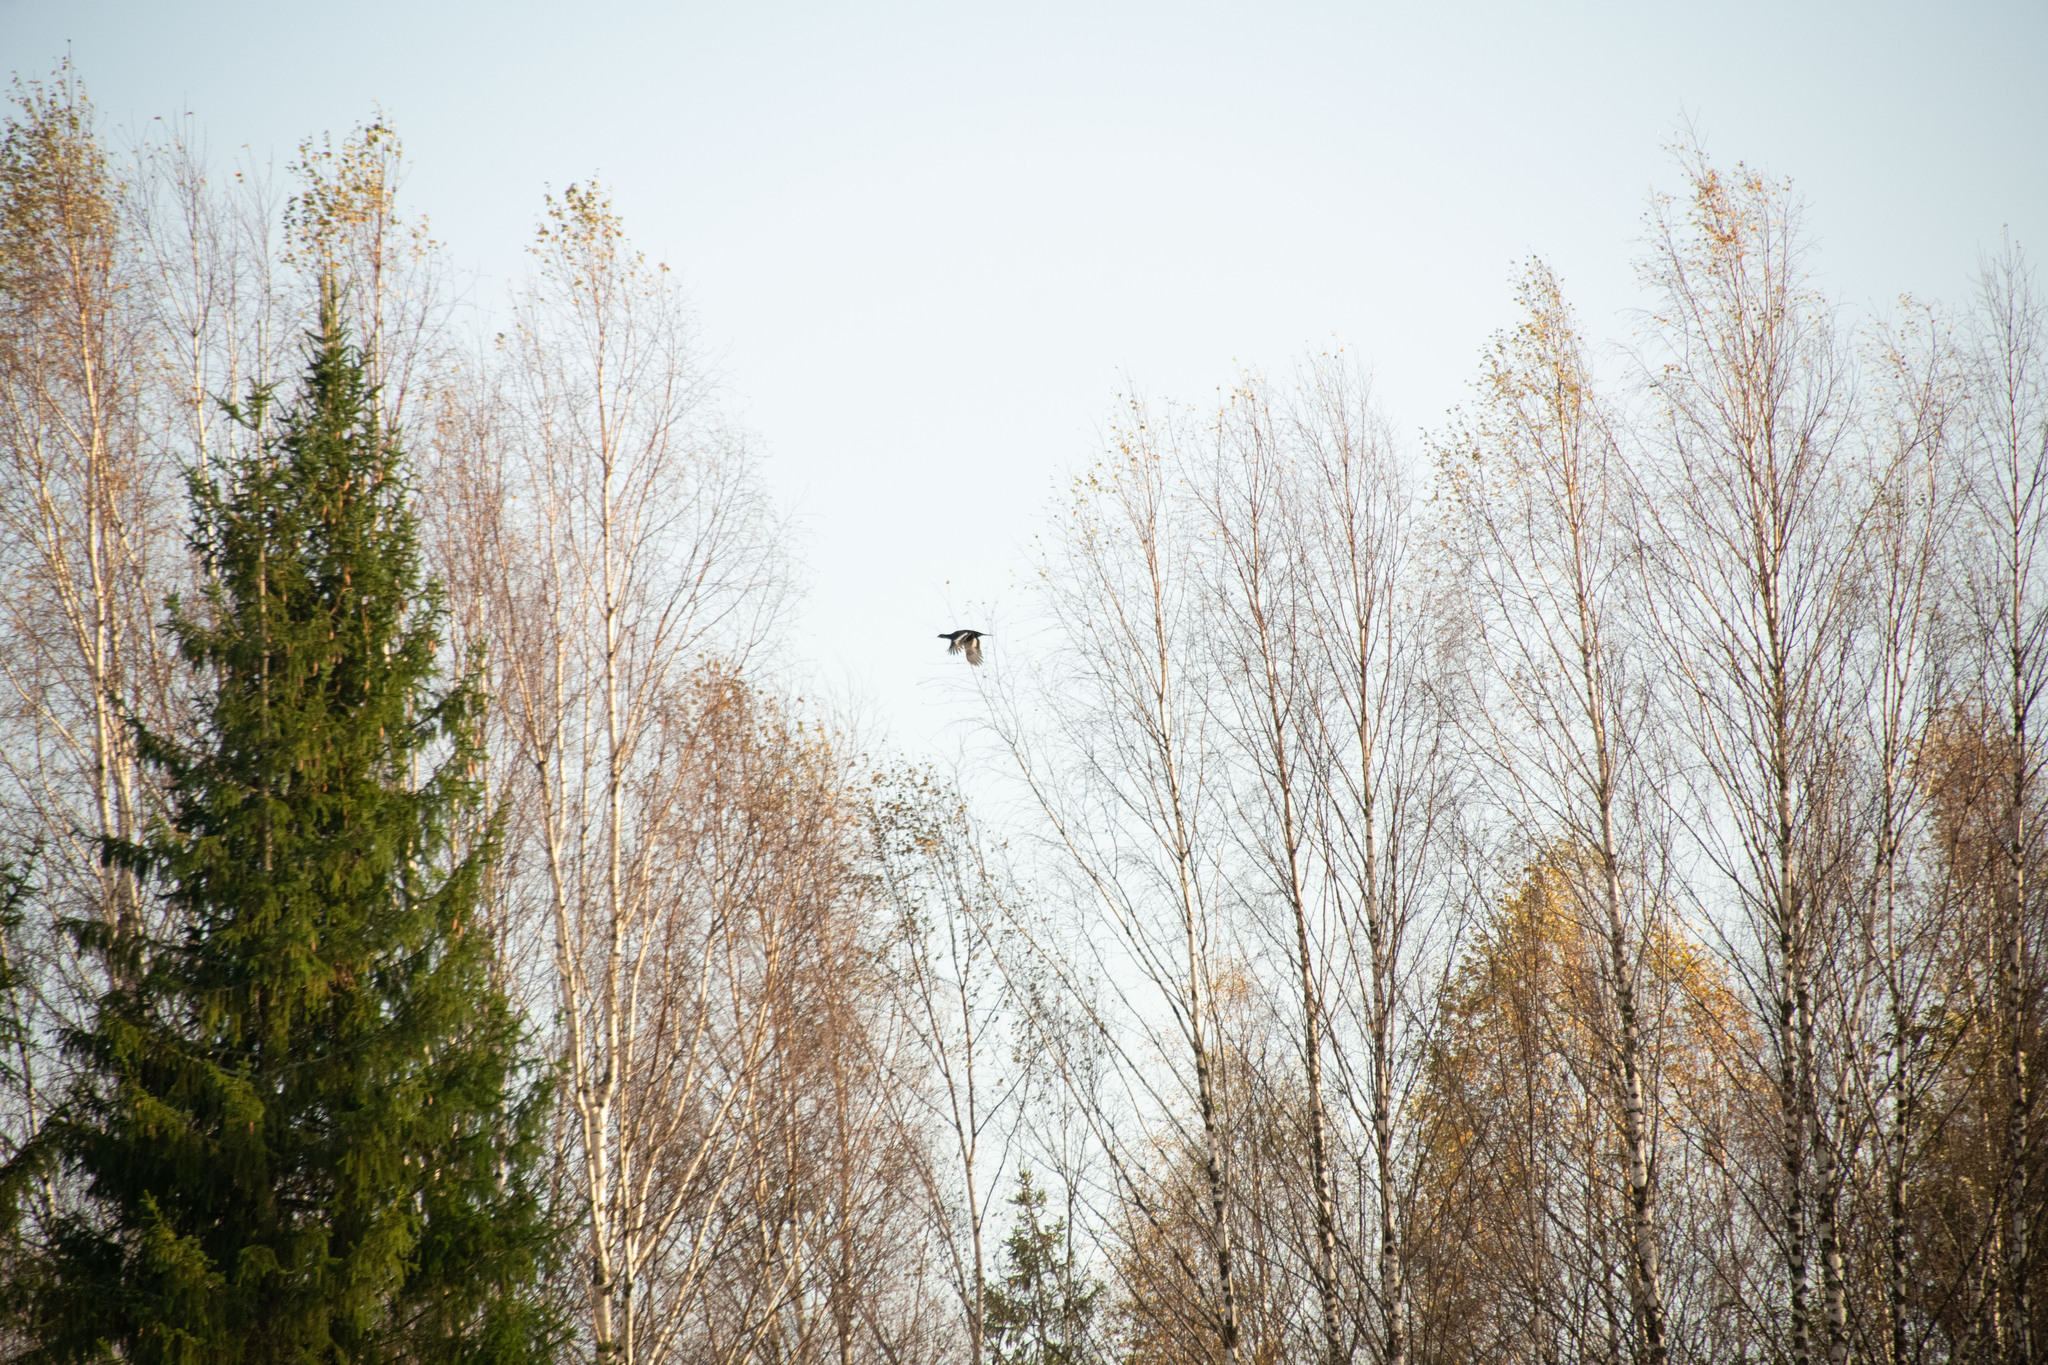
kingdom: Animalia
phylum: Chordata
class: Aves
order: Galliformes
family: Phasianidae
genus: Lyrurus
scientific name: Lyrurus tetrix
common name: Black grouse
